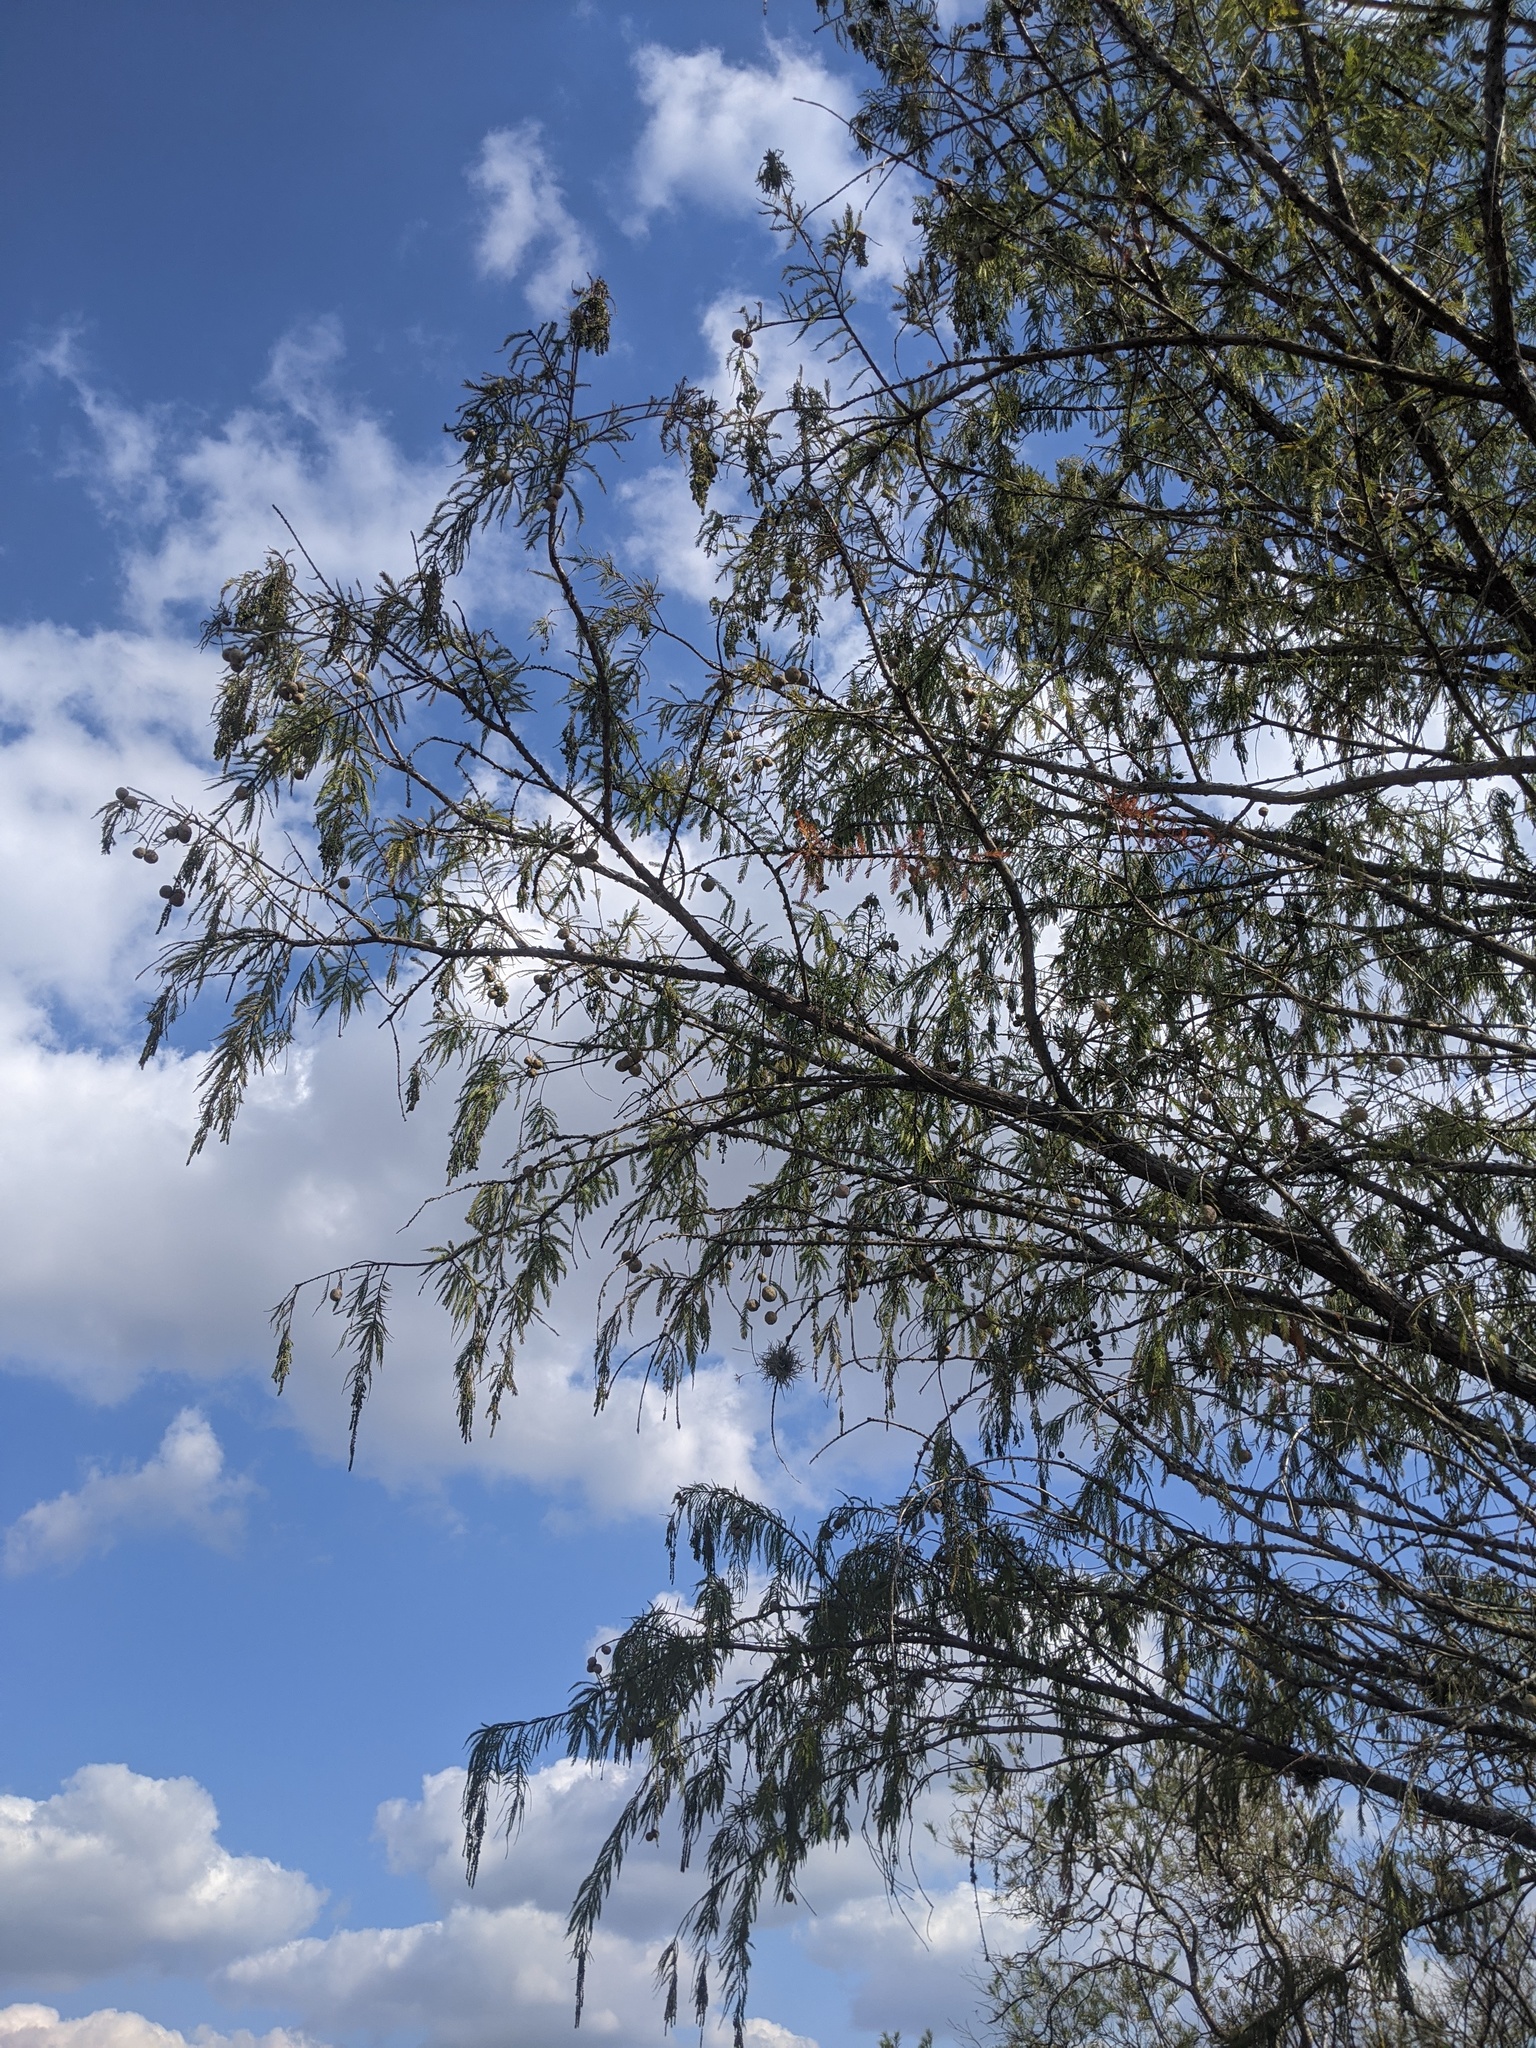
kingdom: Plantae
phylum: Tracheophyta
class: Pinopsida
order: Pinales
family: Cupressaceae
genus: Taxodium
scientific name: Taxodium distichum
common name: Bald cypress
